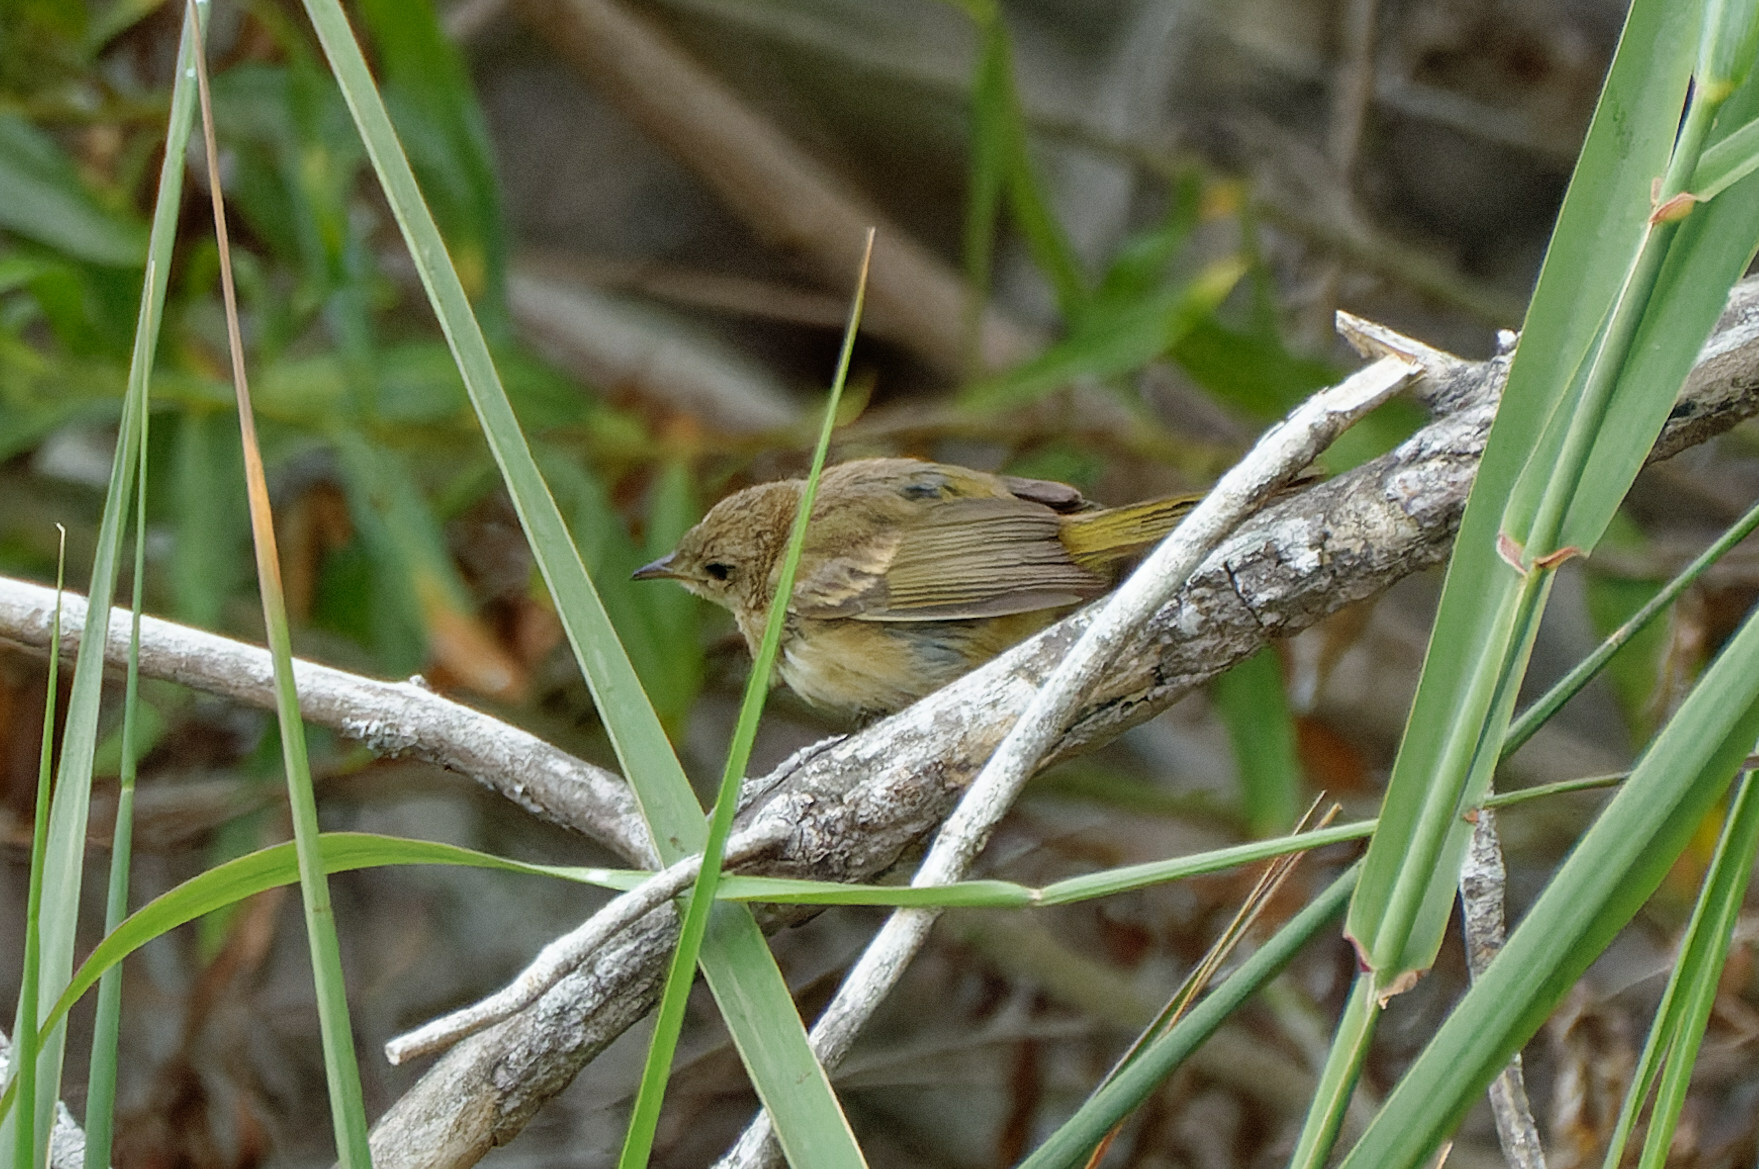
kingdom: Animalia
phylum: Chordata
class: Aves
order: Passeriformes
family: Parulidae
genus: Geothlypis
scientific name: Geothlypis trichas
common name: Common yellowthroat
